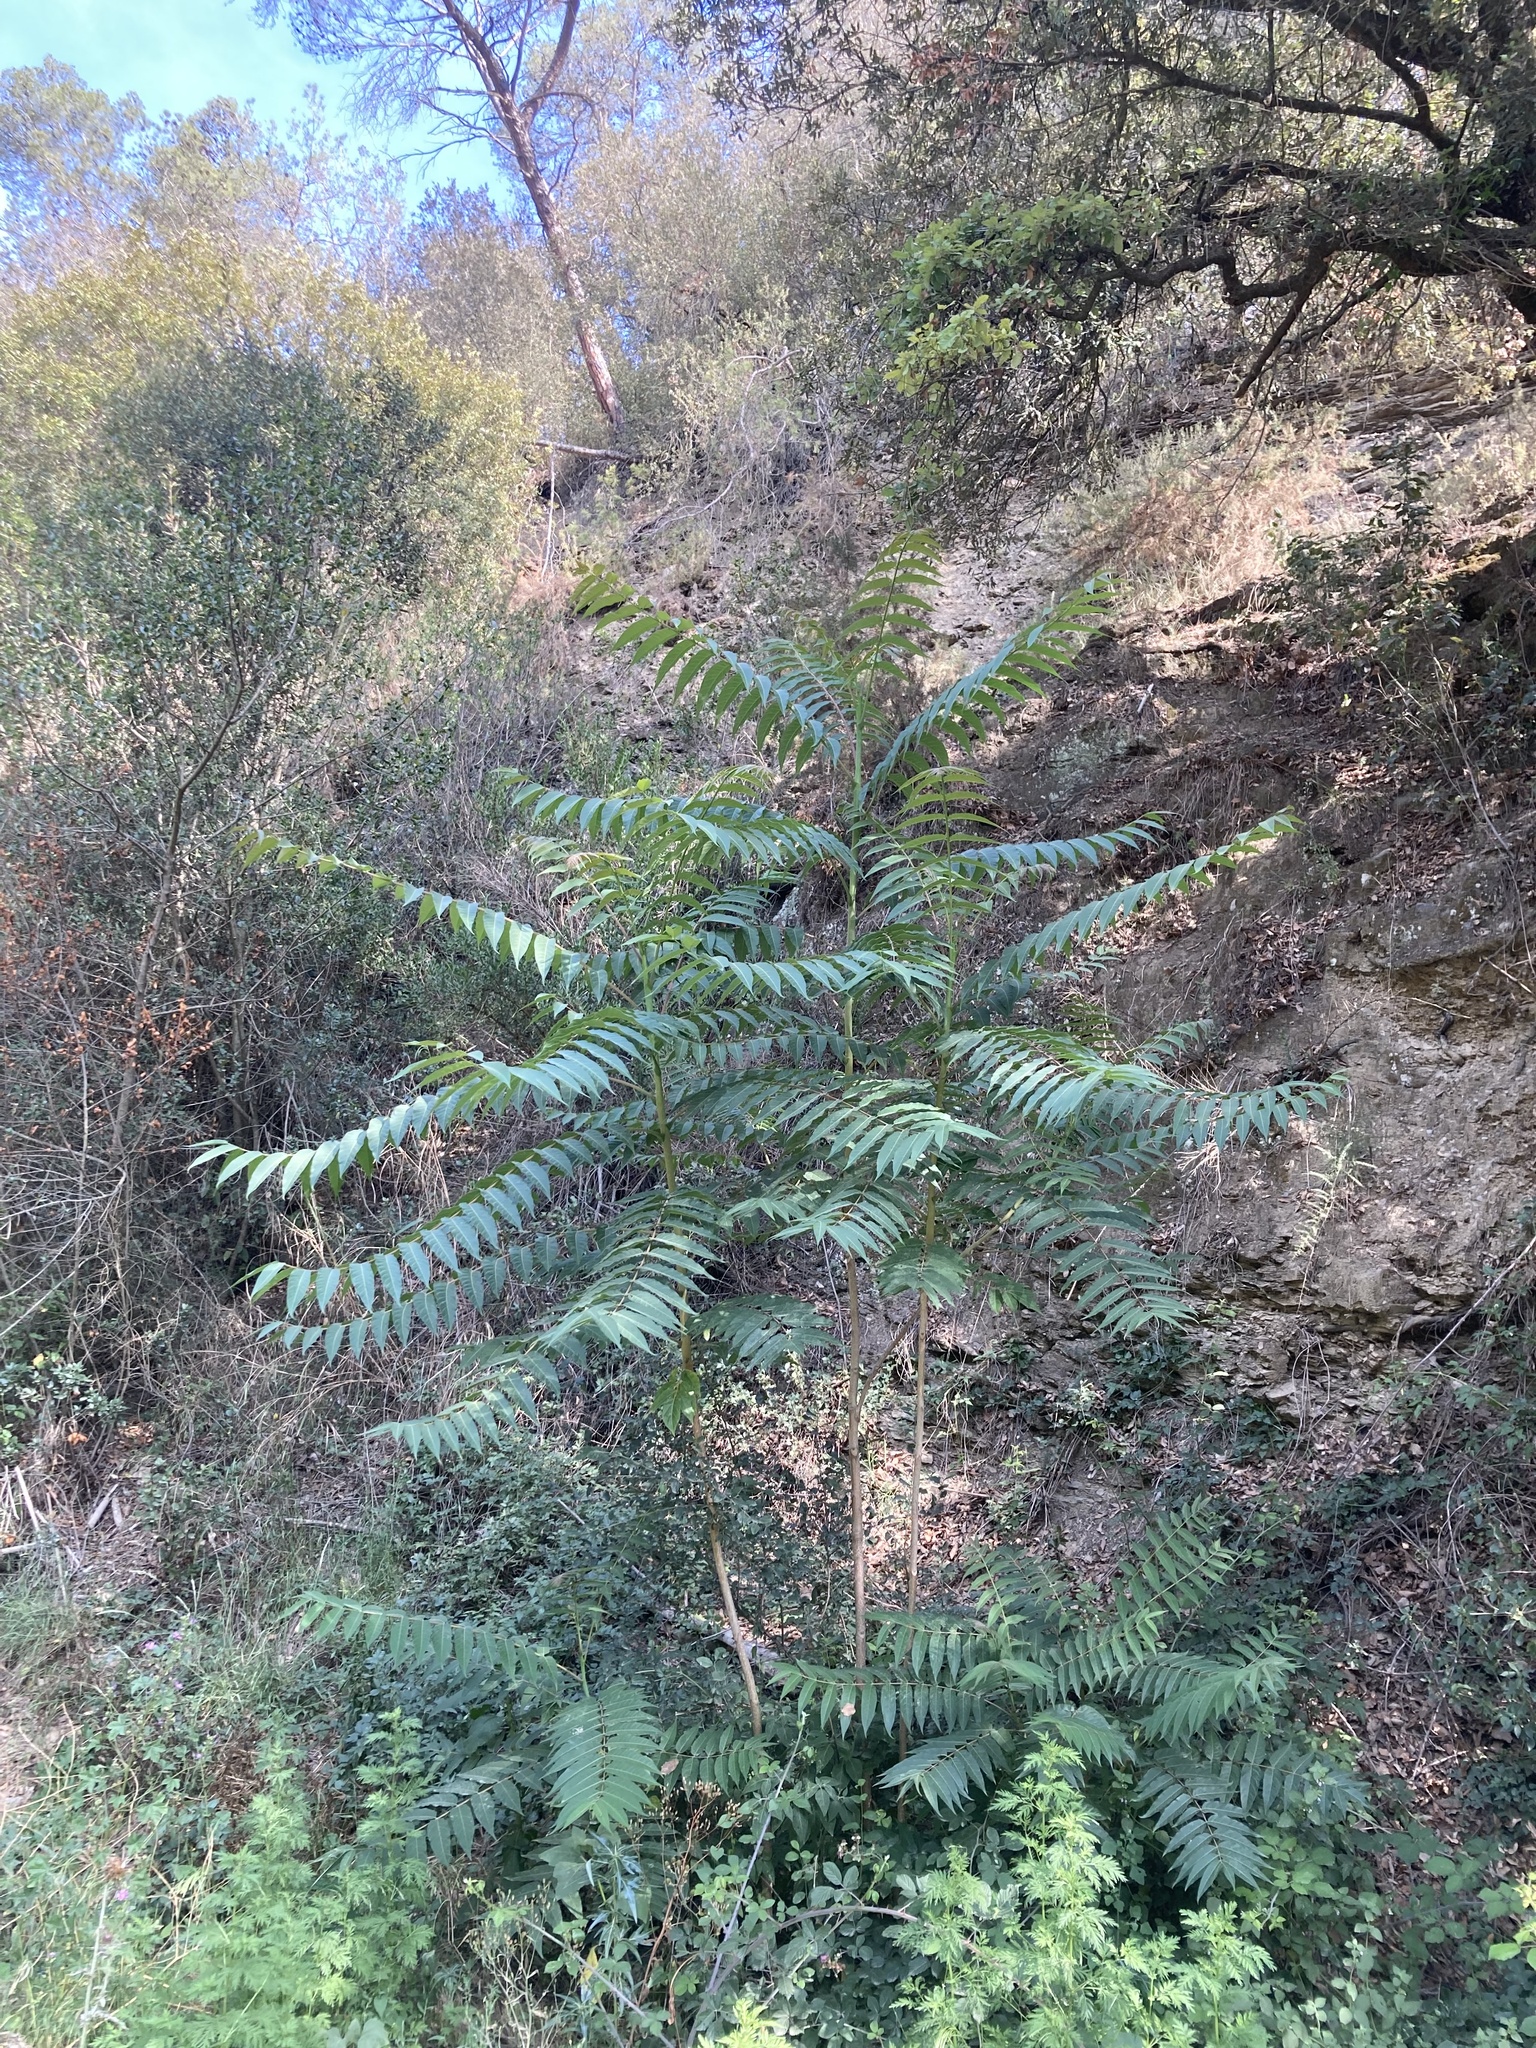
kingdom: Plantae
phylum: Tracheophyta
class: Magnoliopsida
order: Sapindales
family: Simaroubaceae
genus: Ailanthus
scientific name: Ailanthus altissima
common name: Tree-of-heaven
